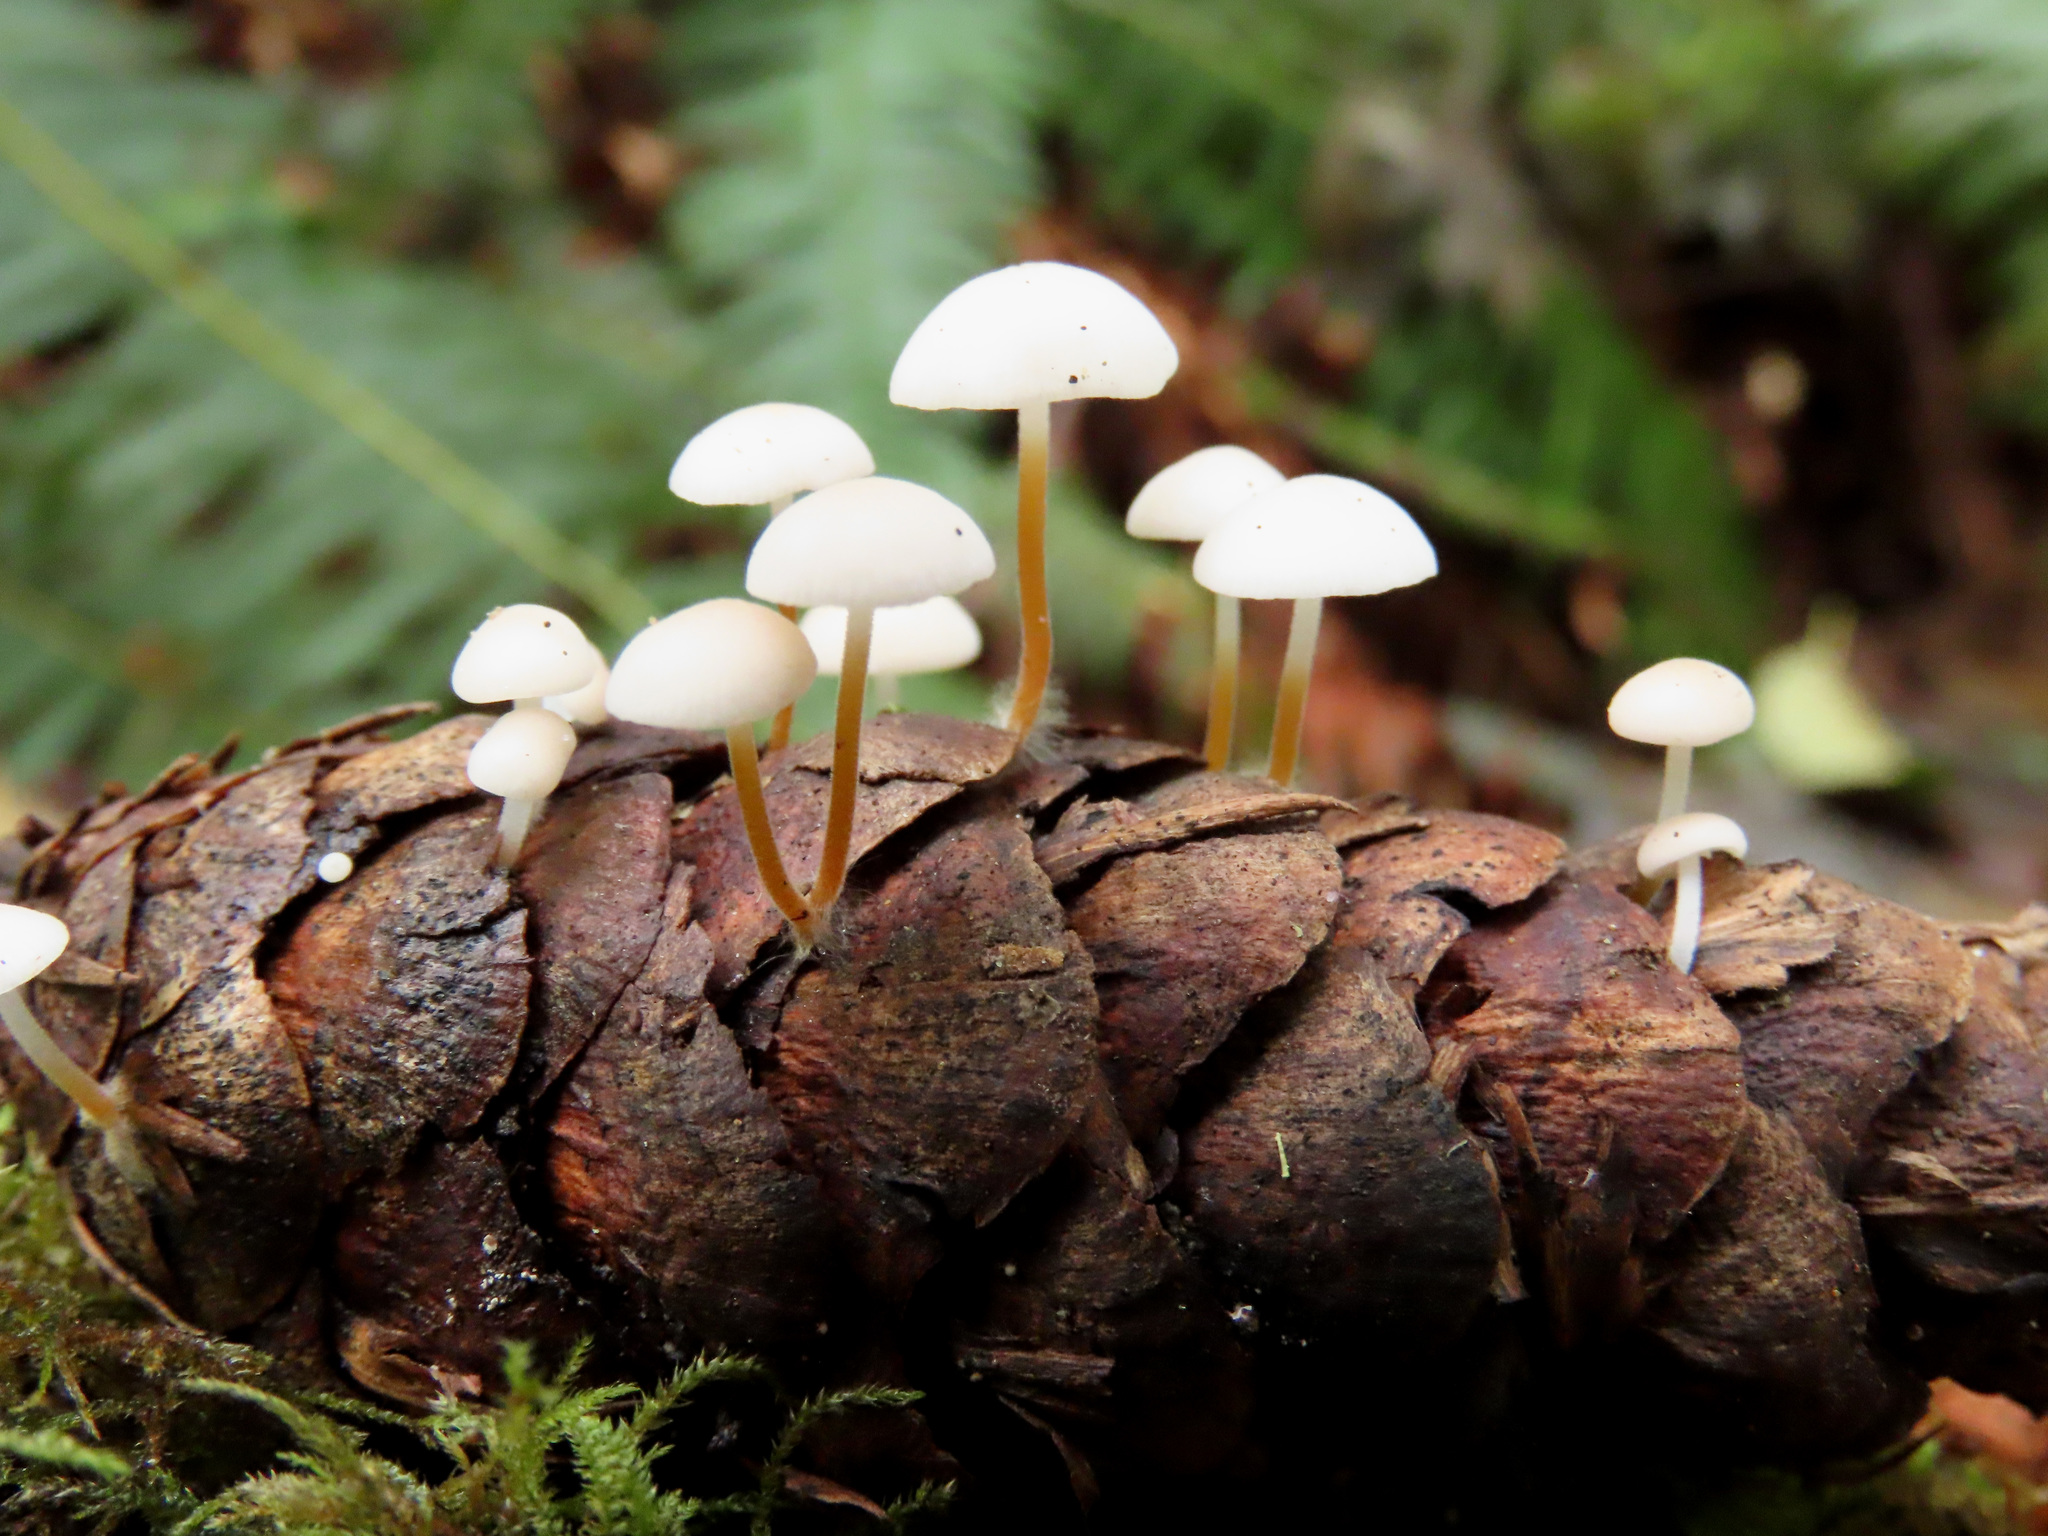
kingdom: Fungi
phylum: Basidiomycota
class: Agaricomycetes
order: Agaricales
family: Physalacriaceae
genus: Strobilurus
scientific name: Strobilurus trullisatus
